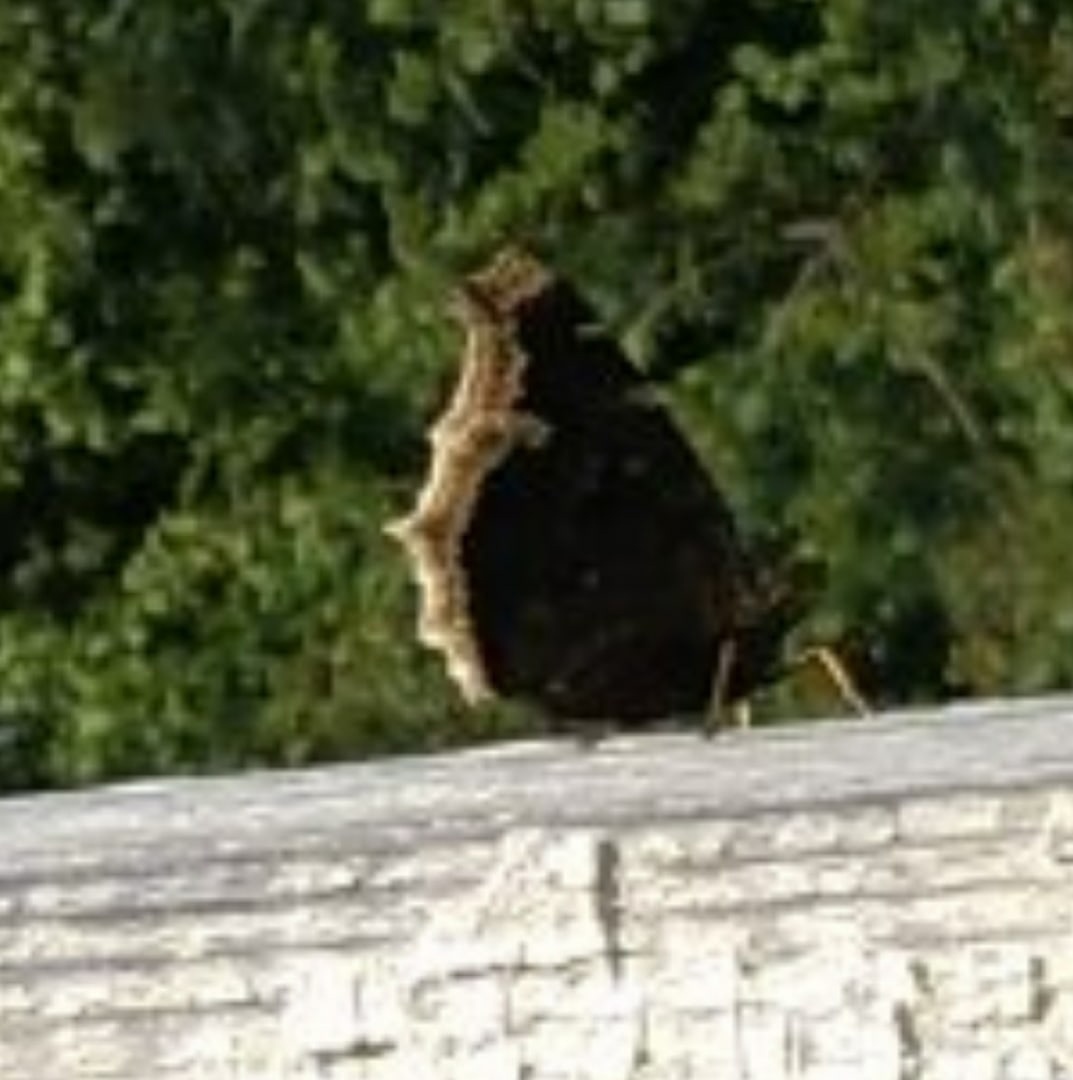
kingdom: Animalia
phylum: Arthropoda
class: Insecta
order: Lepidoptera
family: Nymphalidae
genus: Nymphalis
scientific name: Nymphalis antiopa
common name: Camberwell beauty
